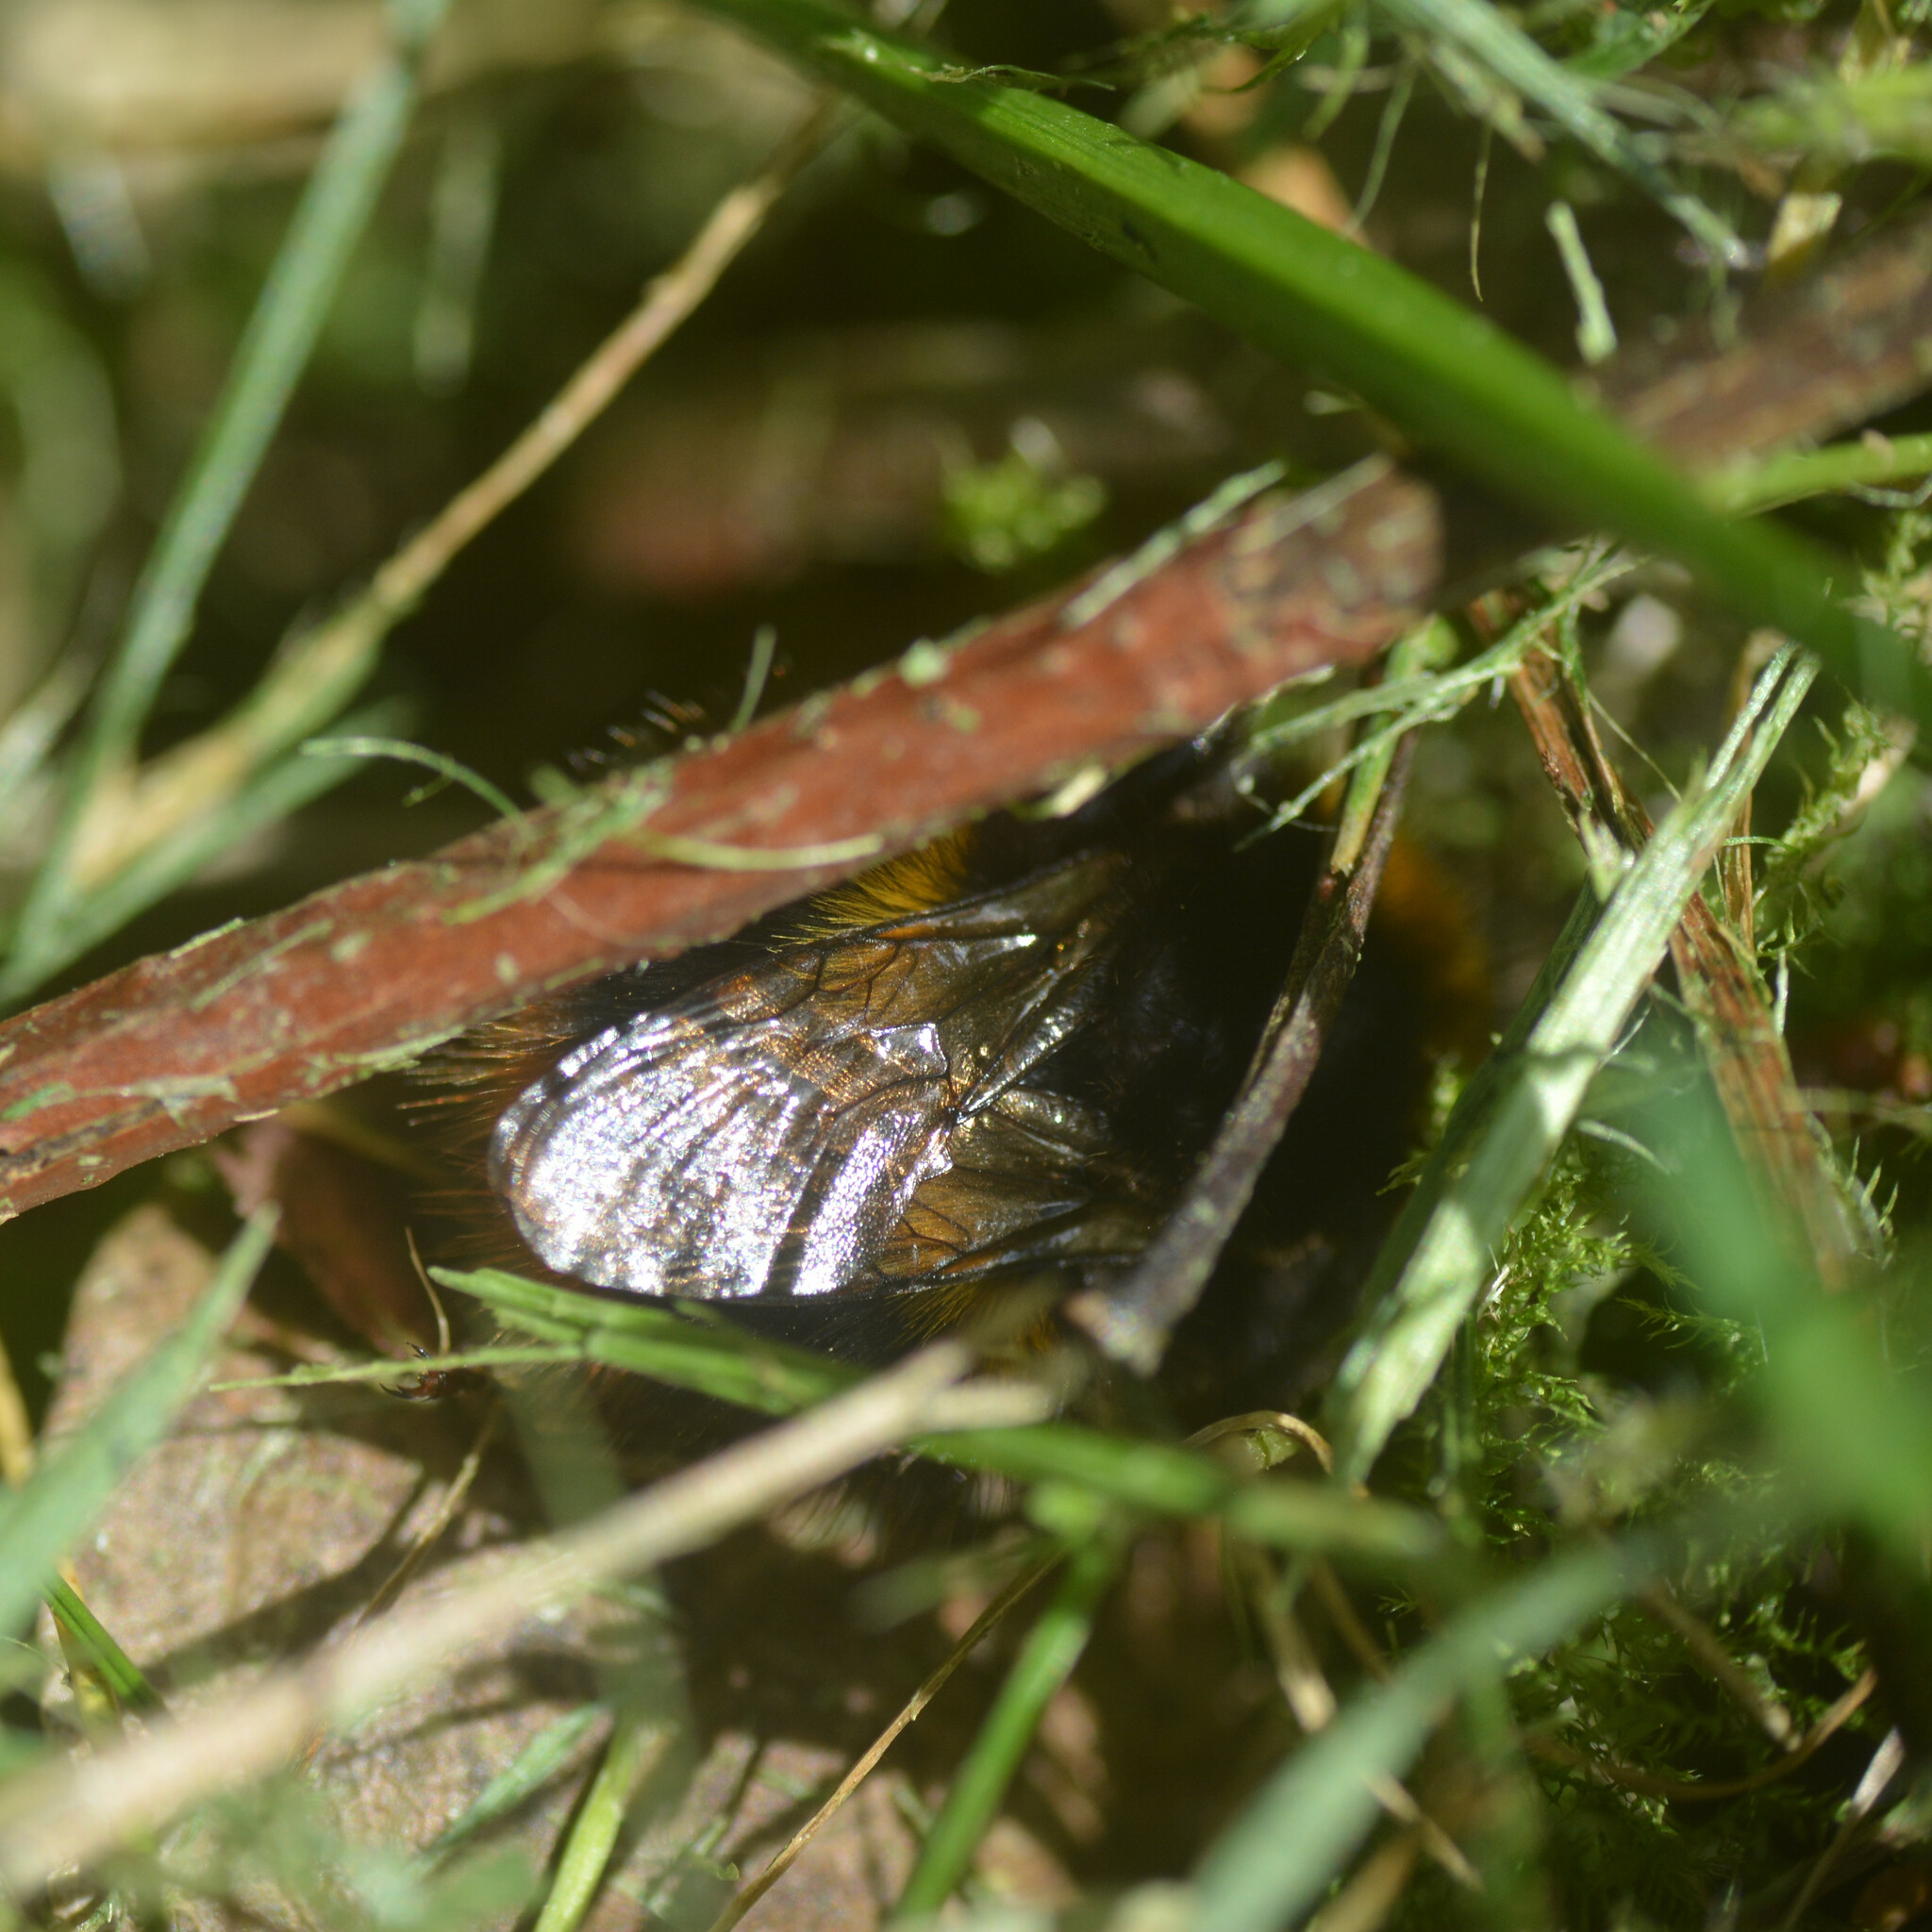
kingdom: Animalia
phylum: Arthropoda
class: Insecta
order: Hymenoptera
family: Apidae
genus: Bombus
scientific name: Bombus pratorum
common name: Early humble-bee
